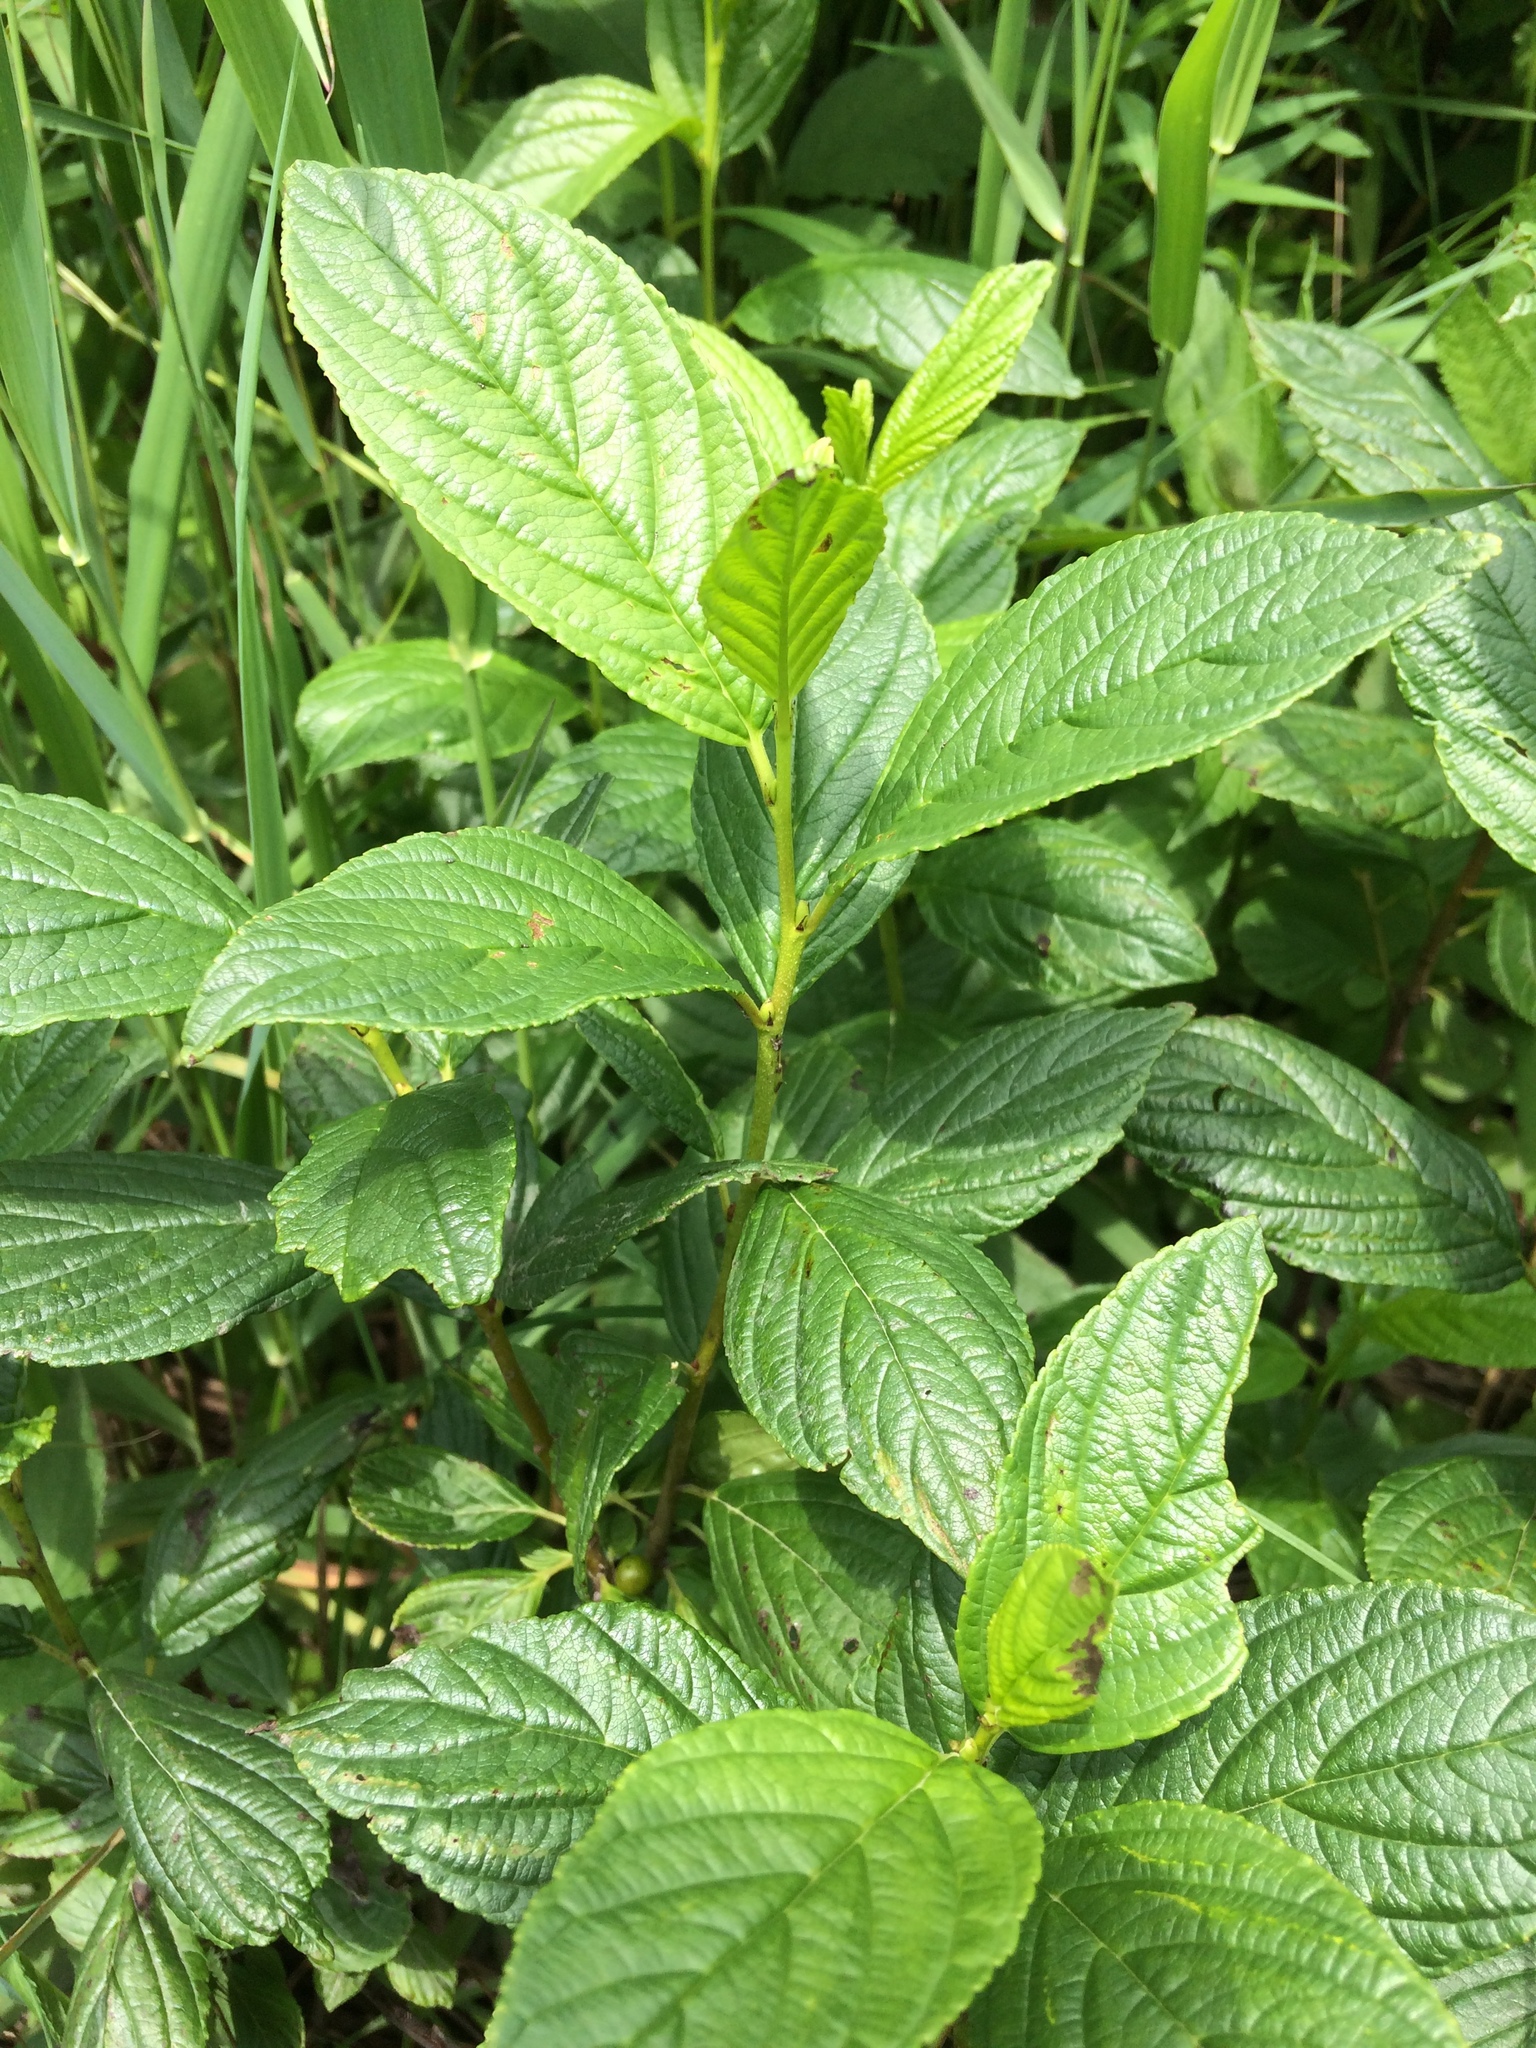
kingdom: Plantae
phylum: Tracheophyta
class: Magnoliopsida
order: Rosales
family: Rhamnaceae
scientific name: Rhamnaceae
